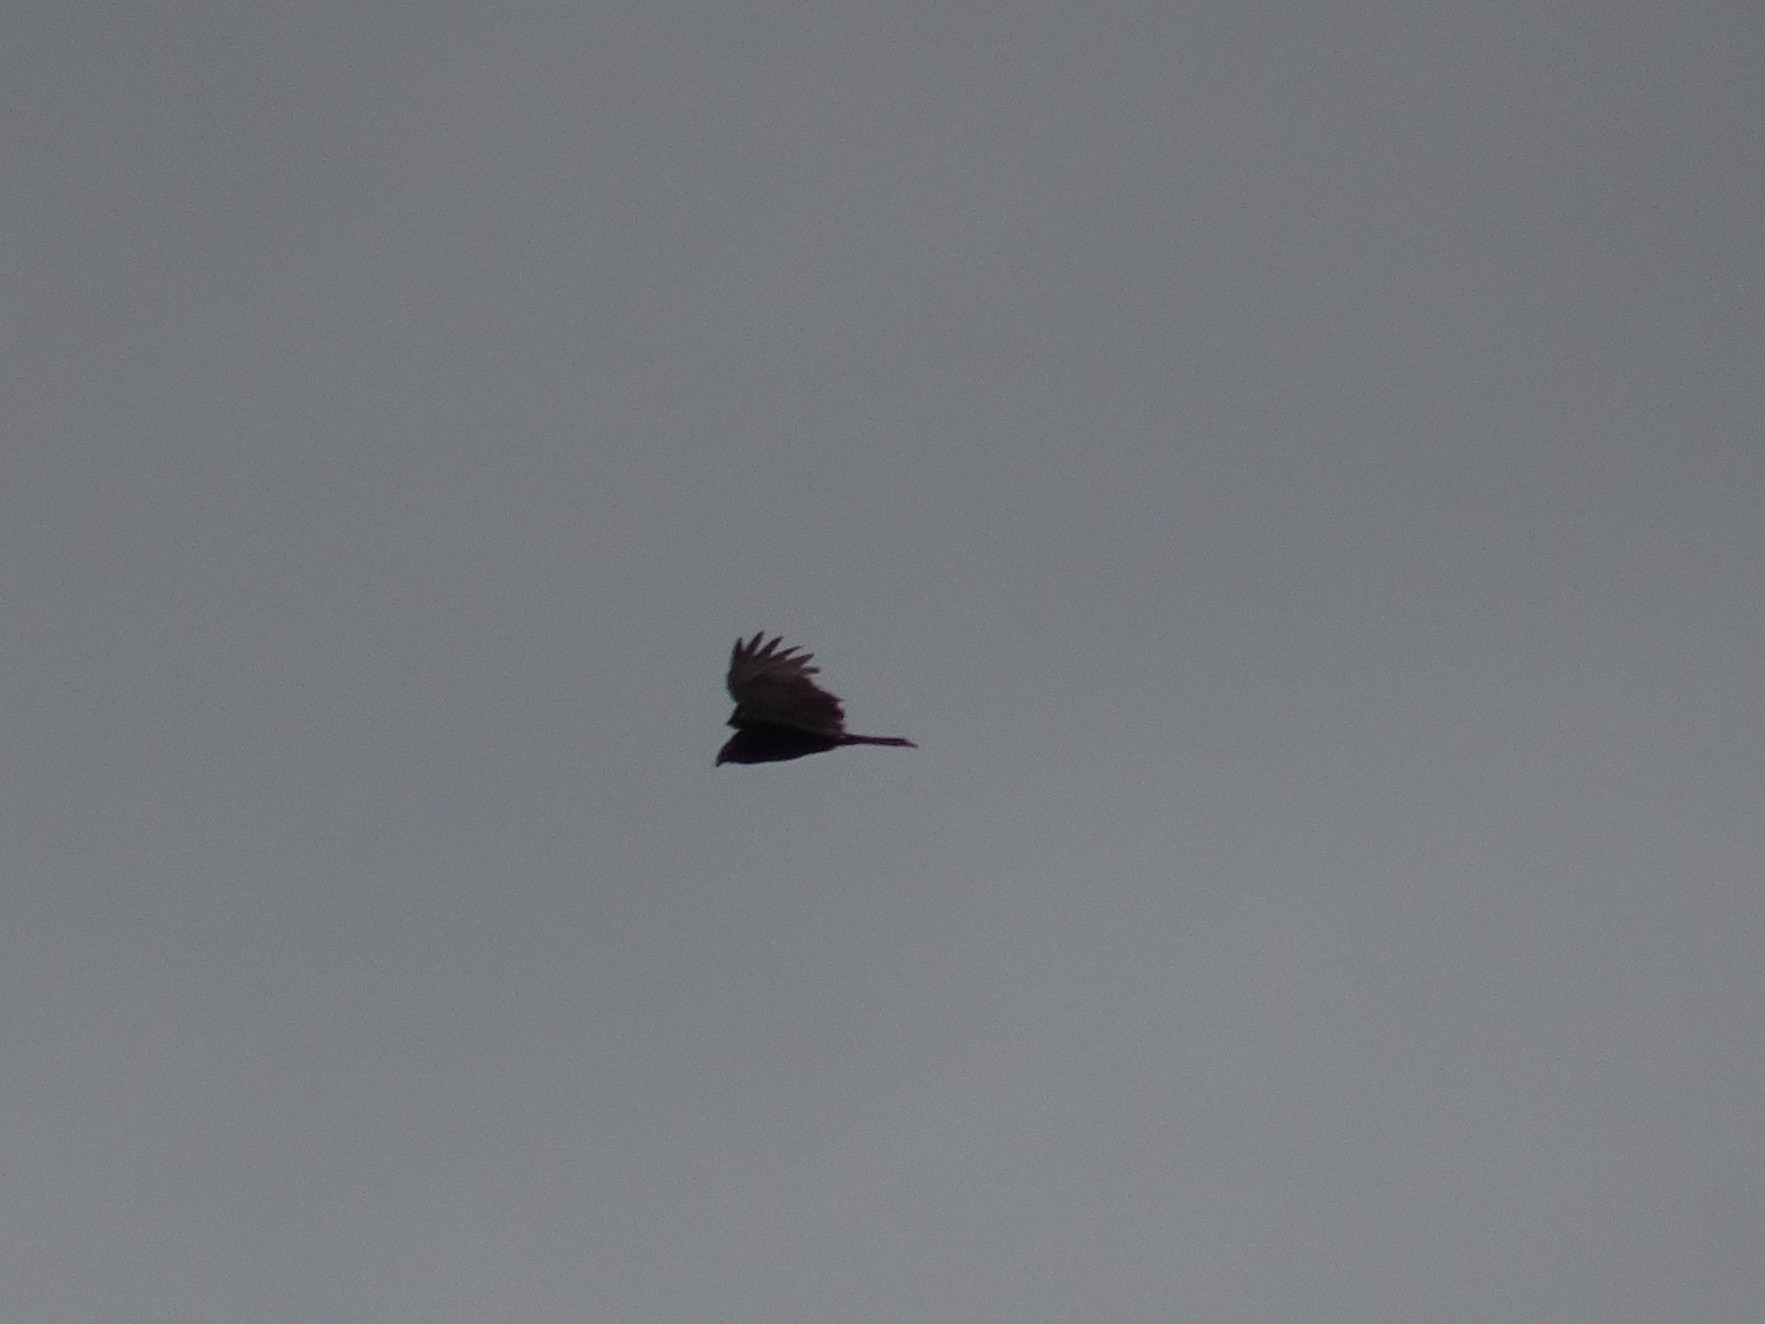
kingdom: Animalia
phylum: Chordata
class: Aves
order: Accipitriformes
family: Cathartidae
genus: Cathartes
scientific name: Cathartes aura
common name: Turkey vulture
